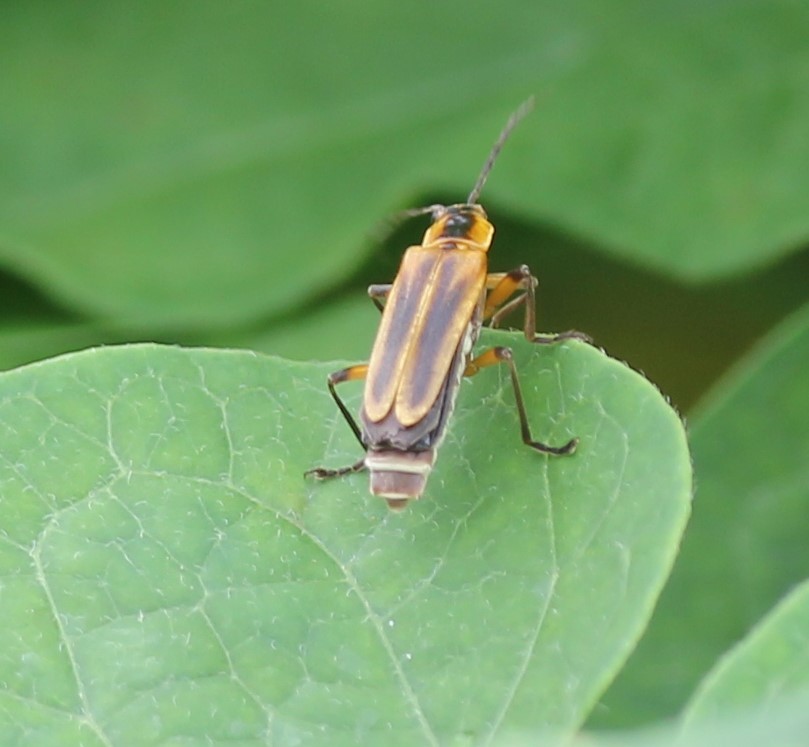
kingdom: Animalia
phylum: Arthropoda
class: Insecta
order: Coleoptera
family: Cantharidae
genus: Chauliognathus
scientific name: Chauliognathus marginatus
